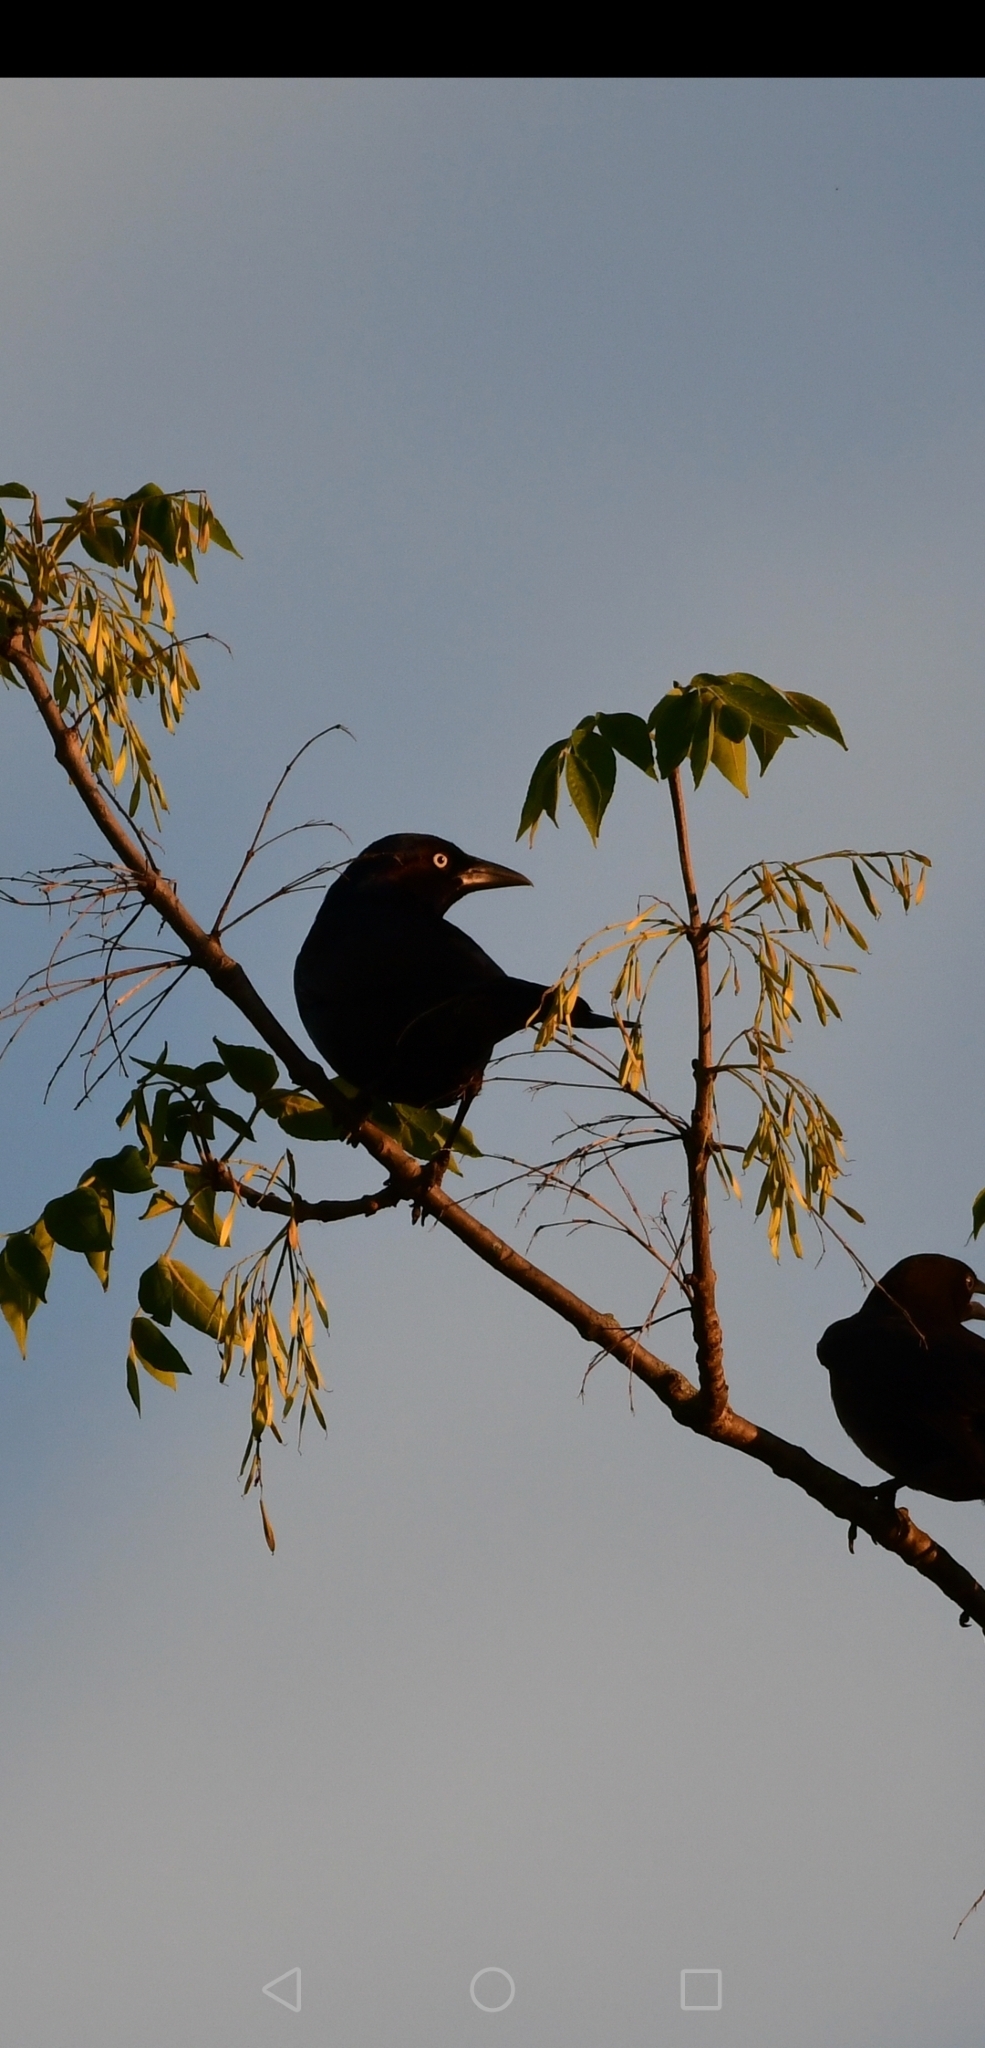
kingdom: Animalia
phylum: Chordata
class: Aves
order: Passeriformes
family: Icteridae
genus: Quiscalus
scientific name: Quiscalus quiscula
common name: Common grackle
